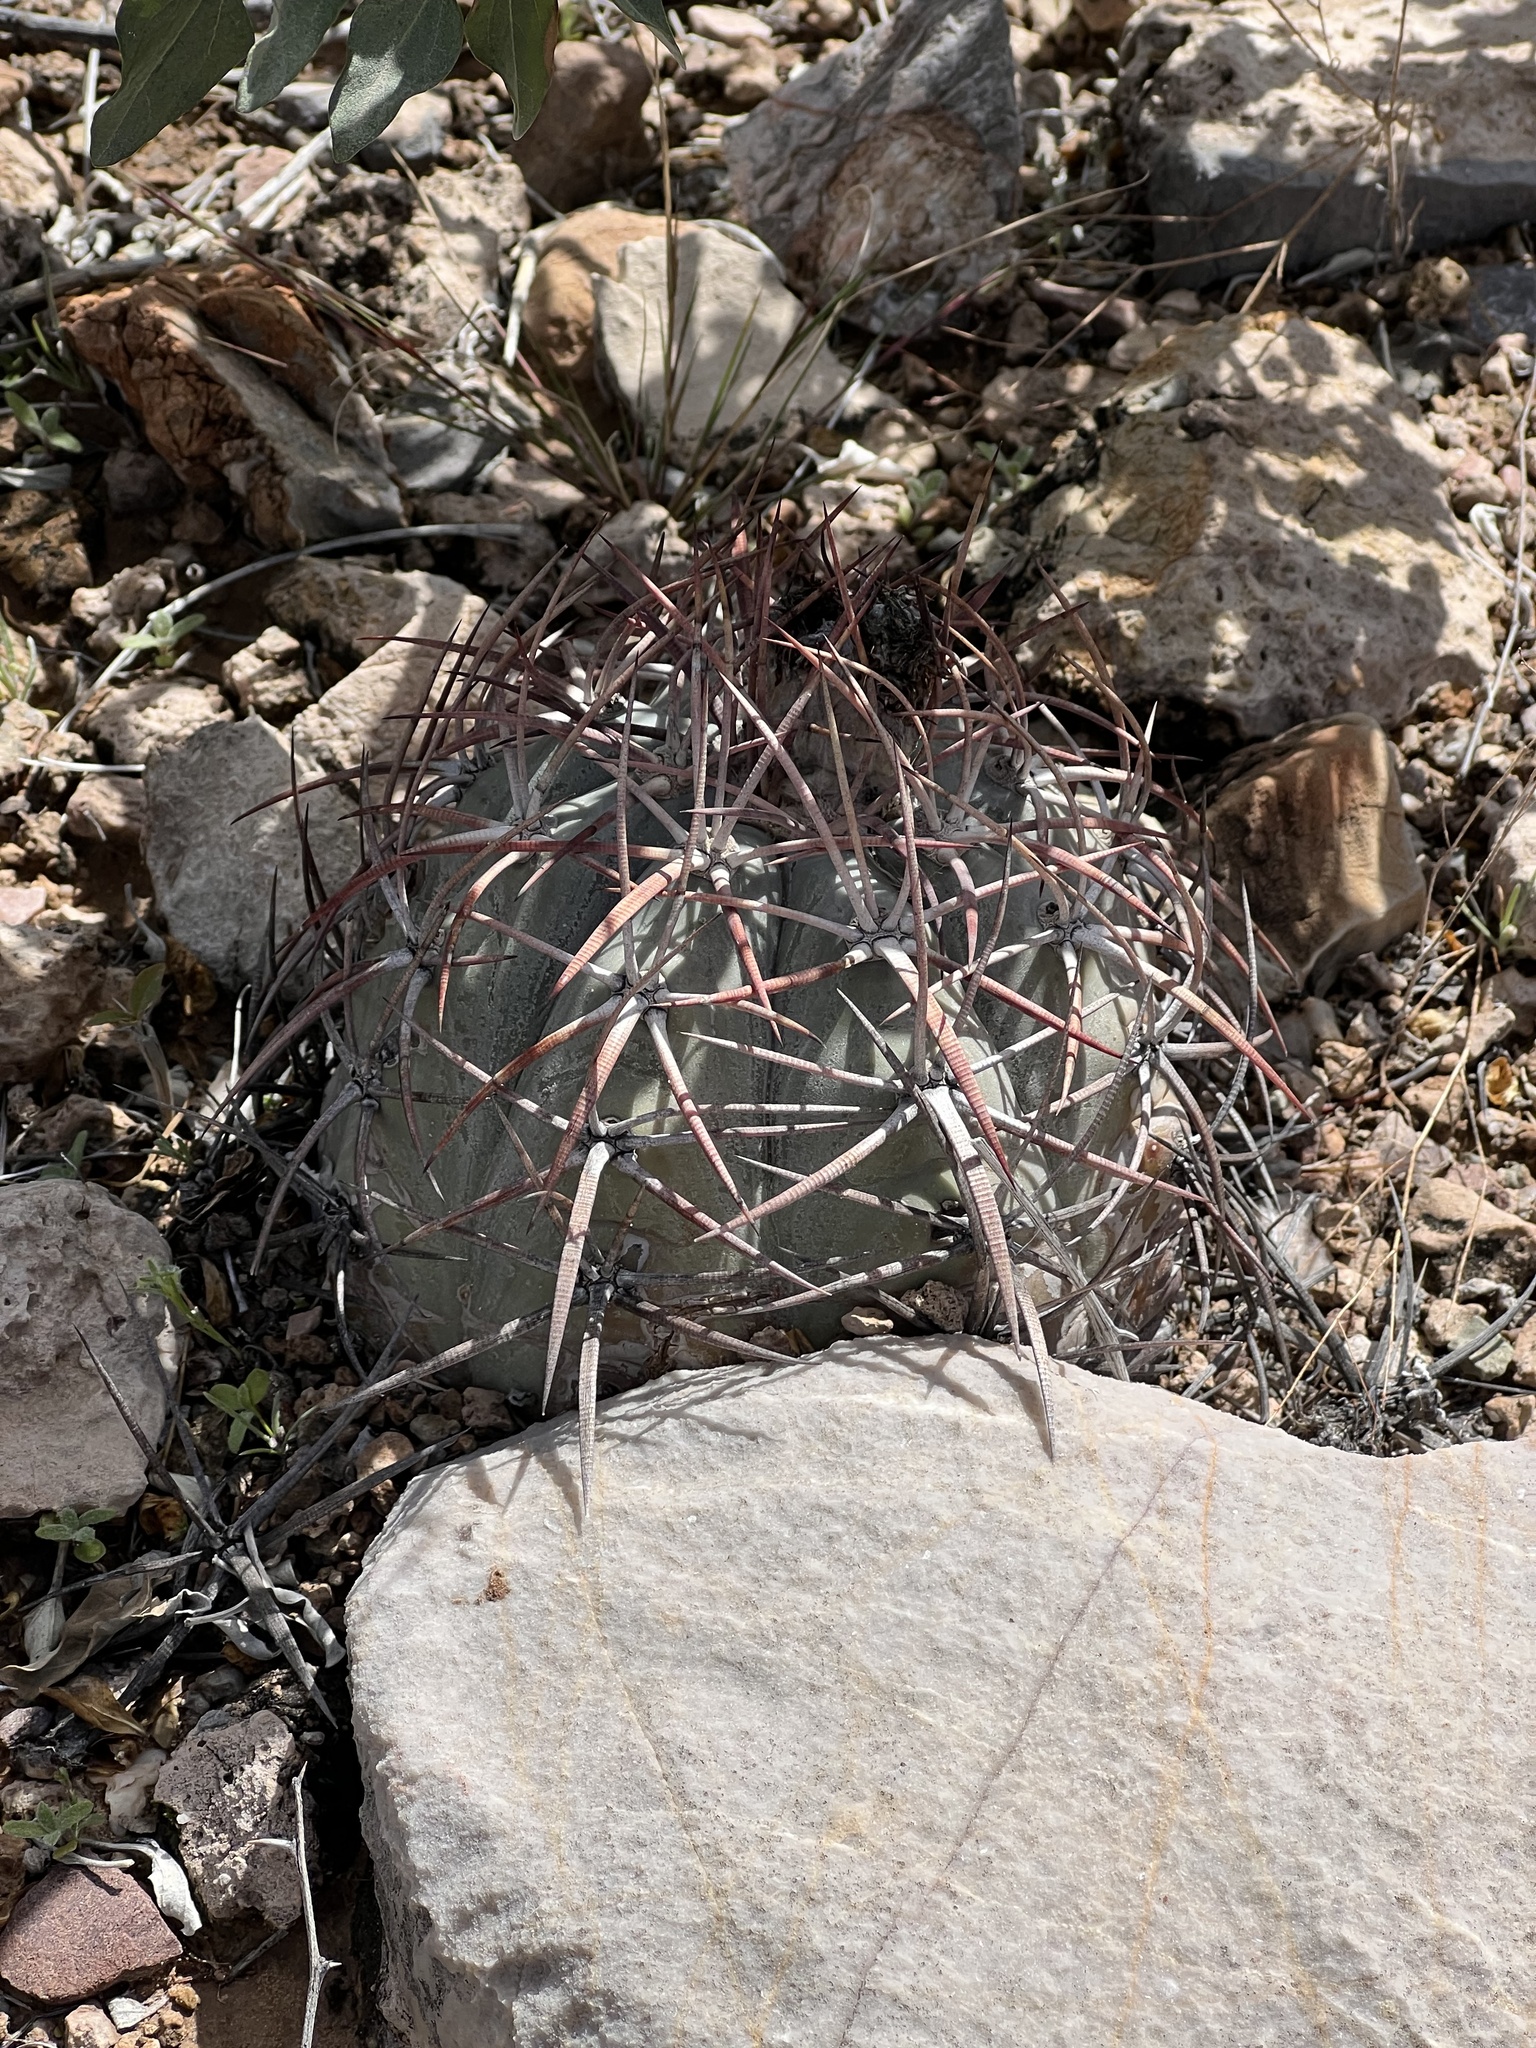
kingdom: Plantae
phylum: Tracheophyta
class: Magnoliopsida
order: Caryophyllales
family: Cactaceae
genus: Echinocactus
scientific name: Echinocactus horizonthalonius
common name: Devilshead
